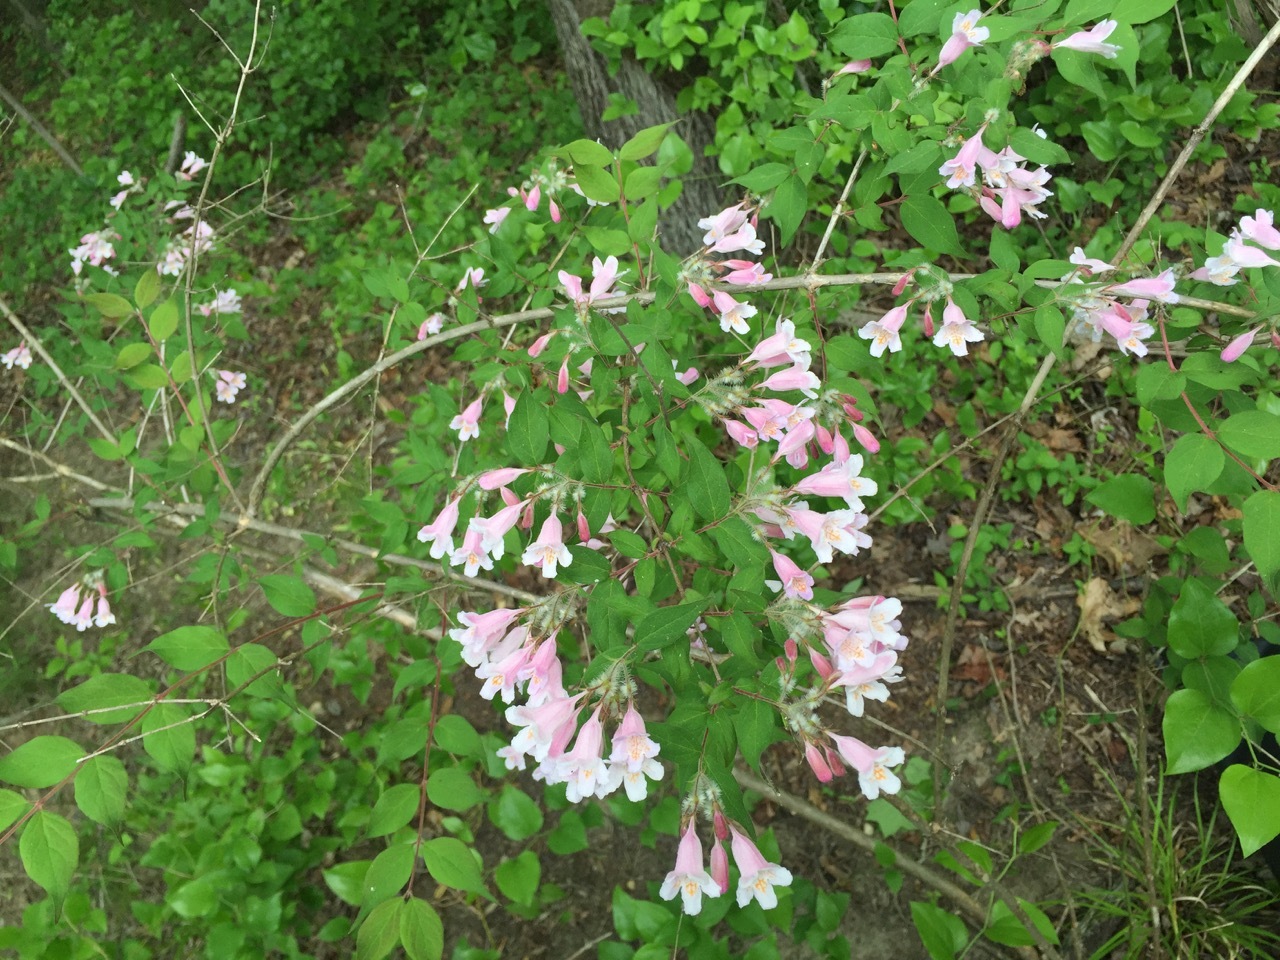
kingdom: Plantae
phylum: Tracheophyta
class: Magnoliopsida
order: Dipsacales
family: Caprifoliaceae
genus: Kolkwitzia
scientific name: Kolkwitzia amabilis
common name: Beautybush
